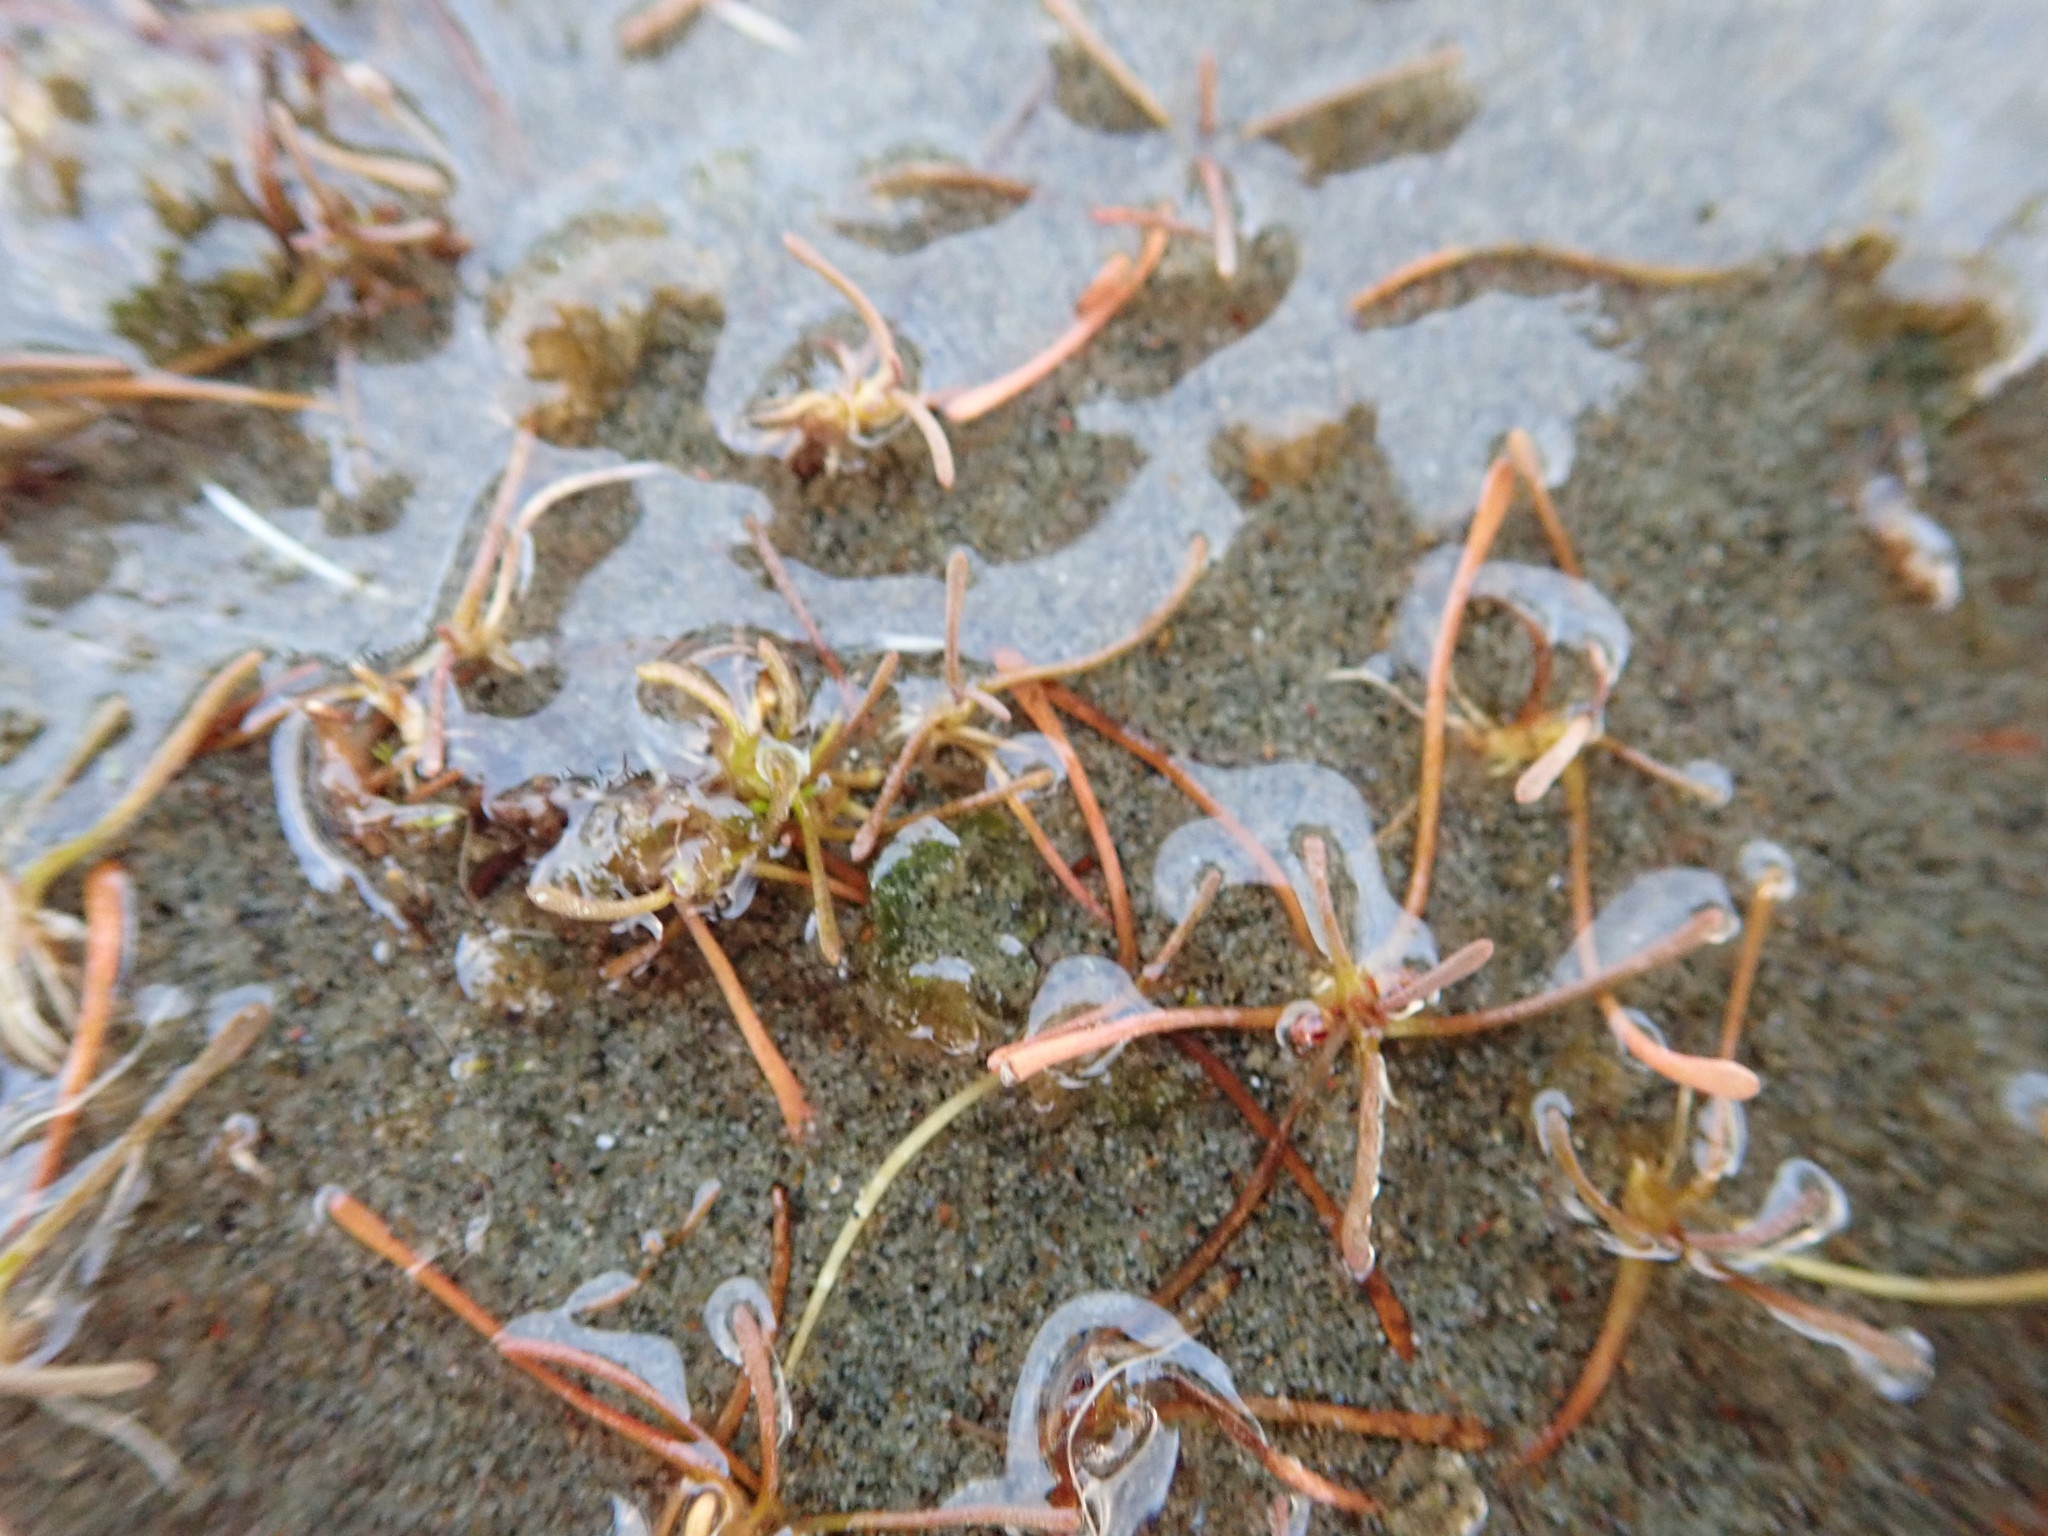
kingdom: Plantae
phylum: Tracheophyta
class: Magnoliopsida
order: Lamiales
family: Scrophulariaceae
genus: Limosella
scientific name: Limosella australis
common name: Welsh mudwort
